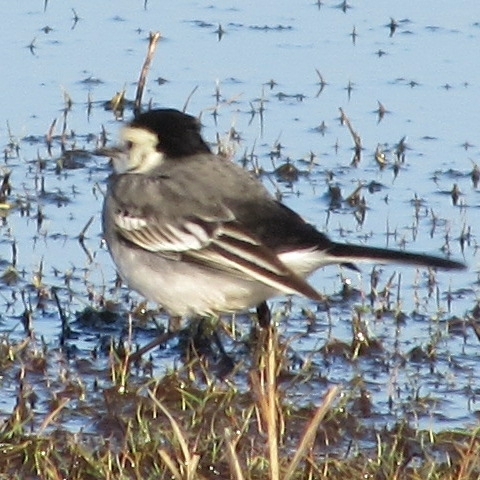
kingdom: Animalia
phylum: Chordata
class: Aves
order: Passeriformes
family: Motacillidae
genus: Motacilla
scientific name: Motacilla alba
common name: White wagtail
